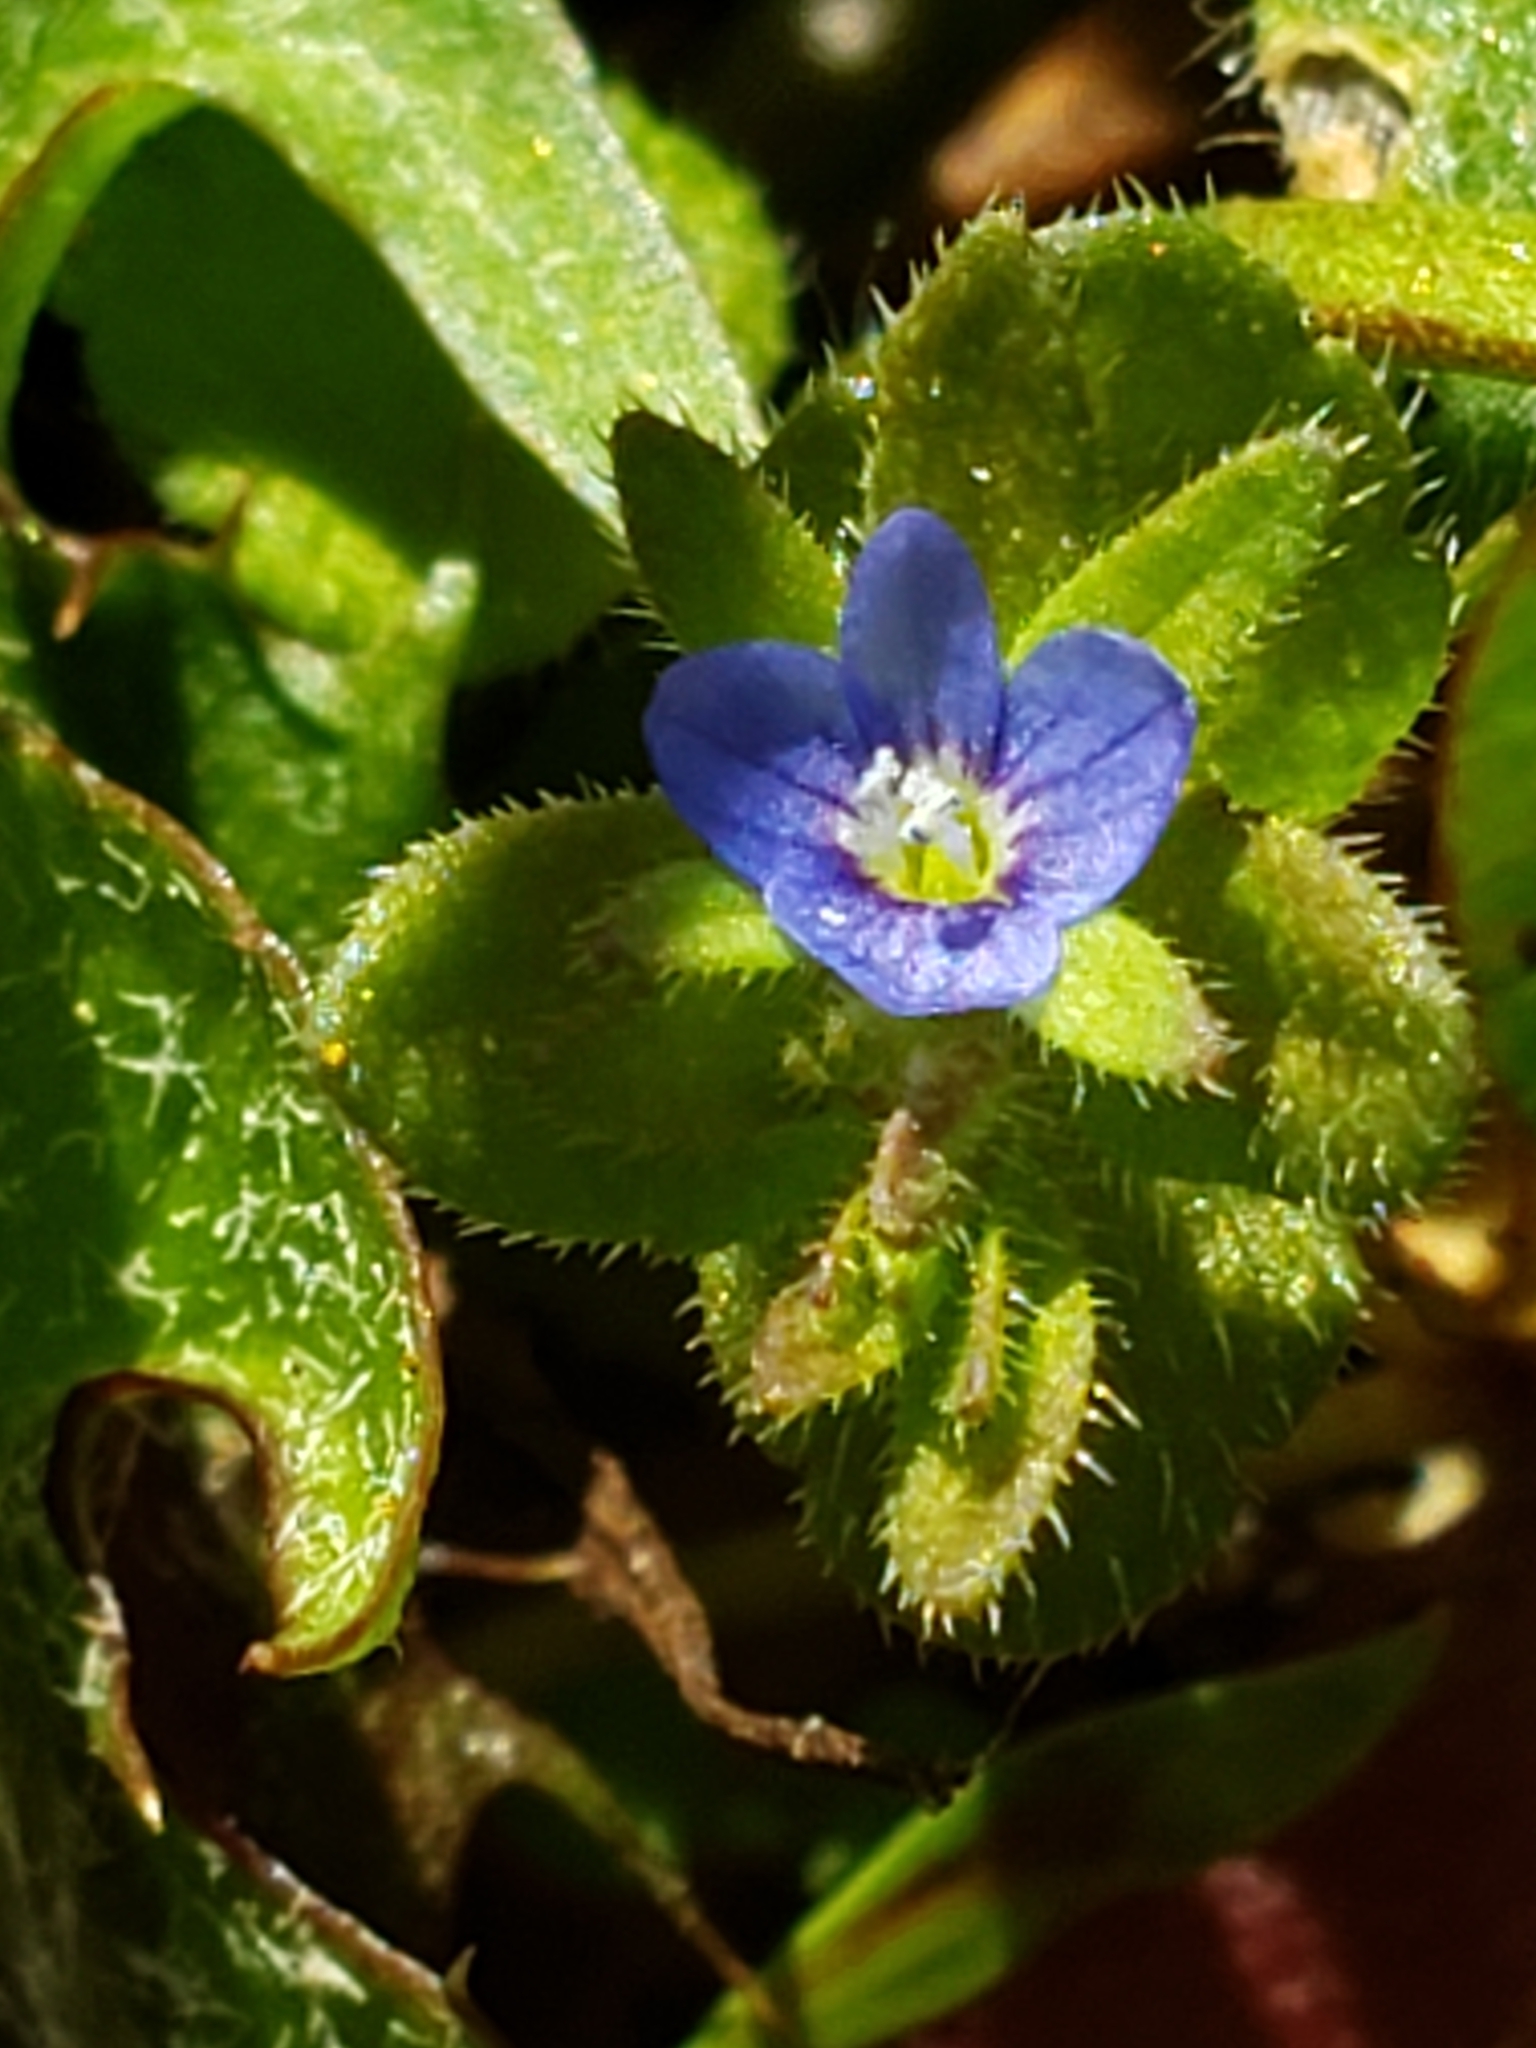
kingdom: Plantae
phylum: Tracheophyta
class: Magnoliopsida
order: Lamiales
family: Plantaginaceae
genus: Veronica
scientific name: Veronica arvensis
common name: Corn speedwell
